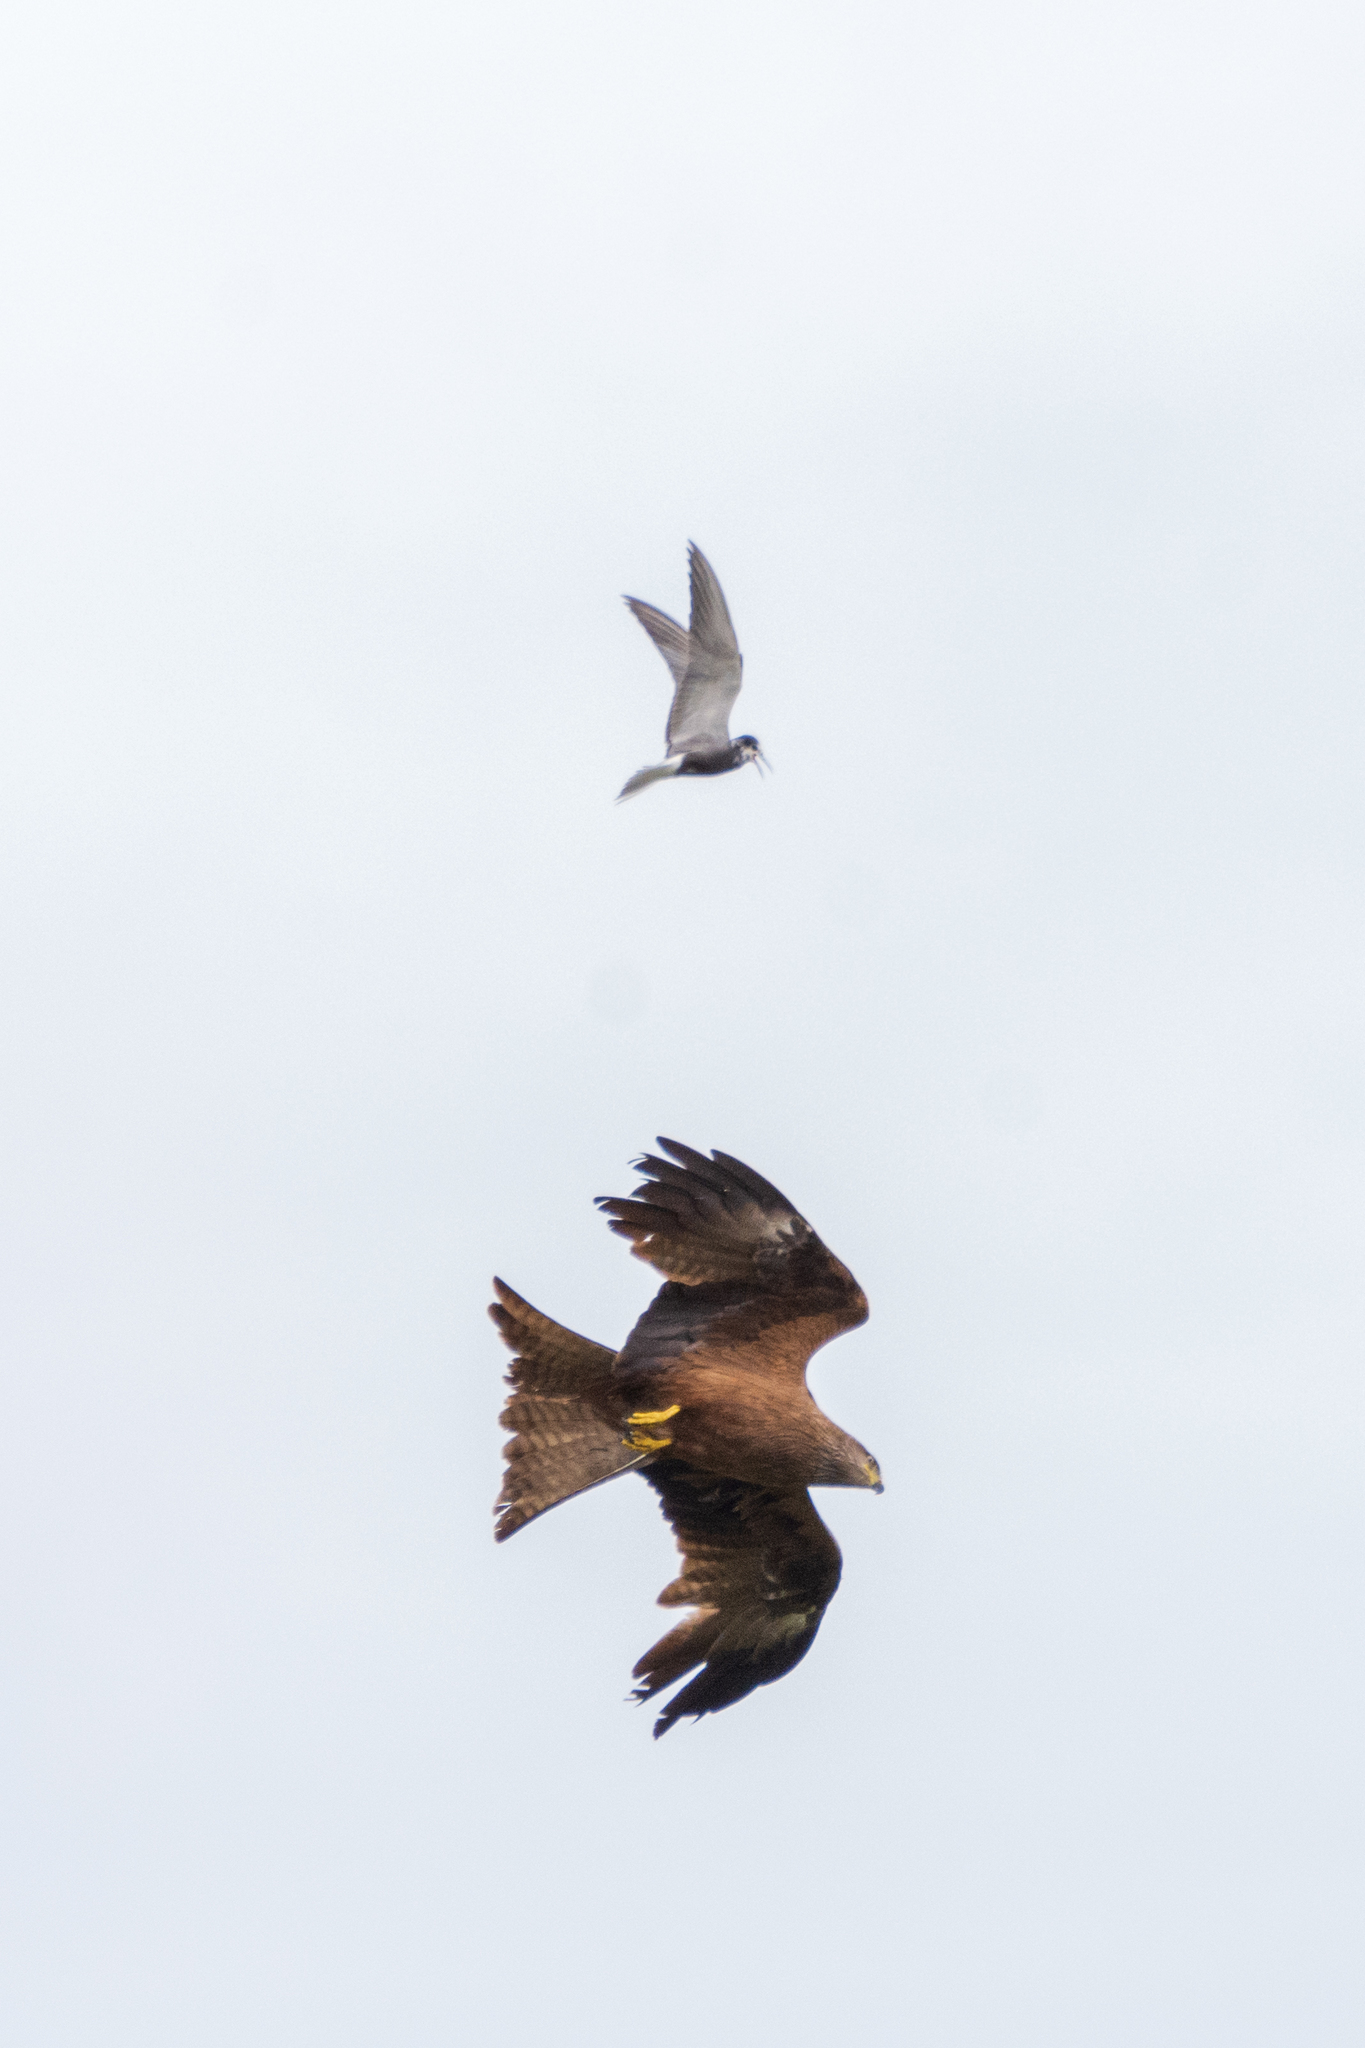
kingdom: Animalia
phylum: Chordata
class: Aves
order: Accipitriformes
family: Accipitridae
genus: Milvus
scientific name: Milvus migrans
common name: Black kite
